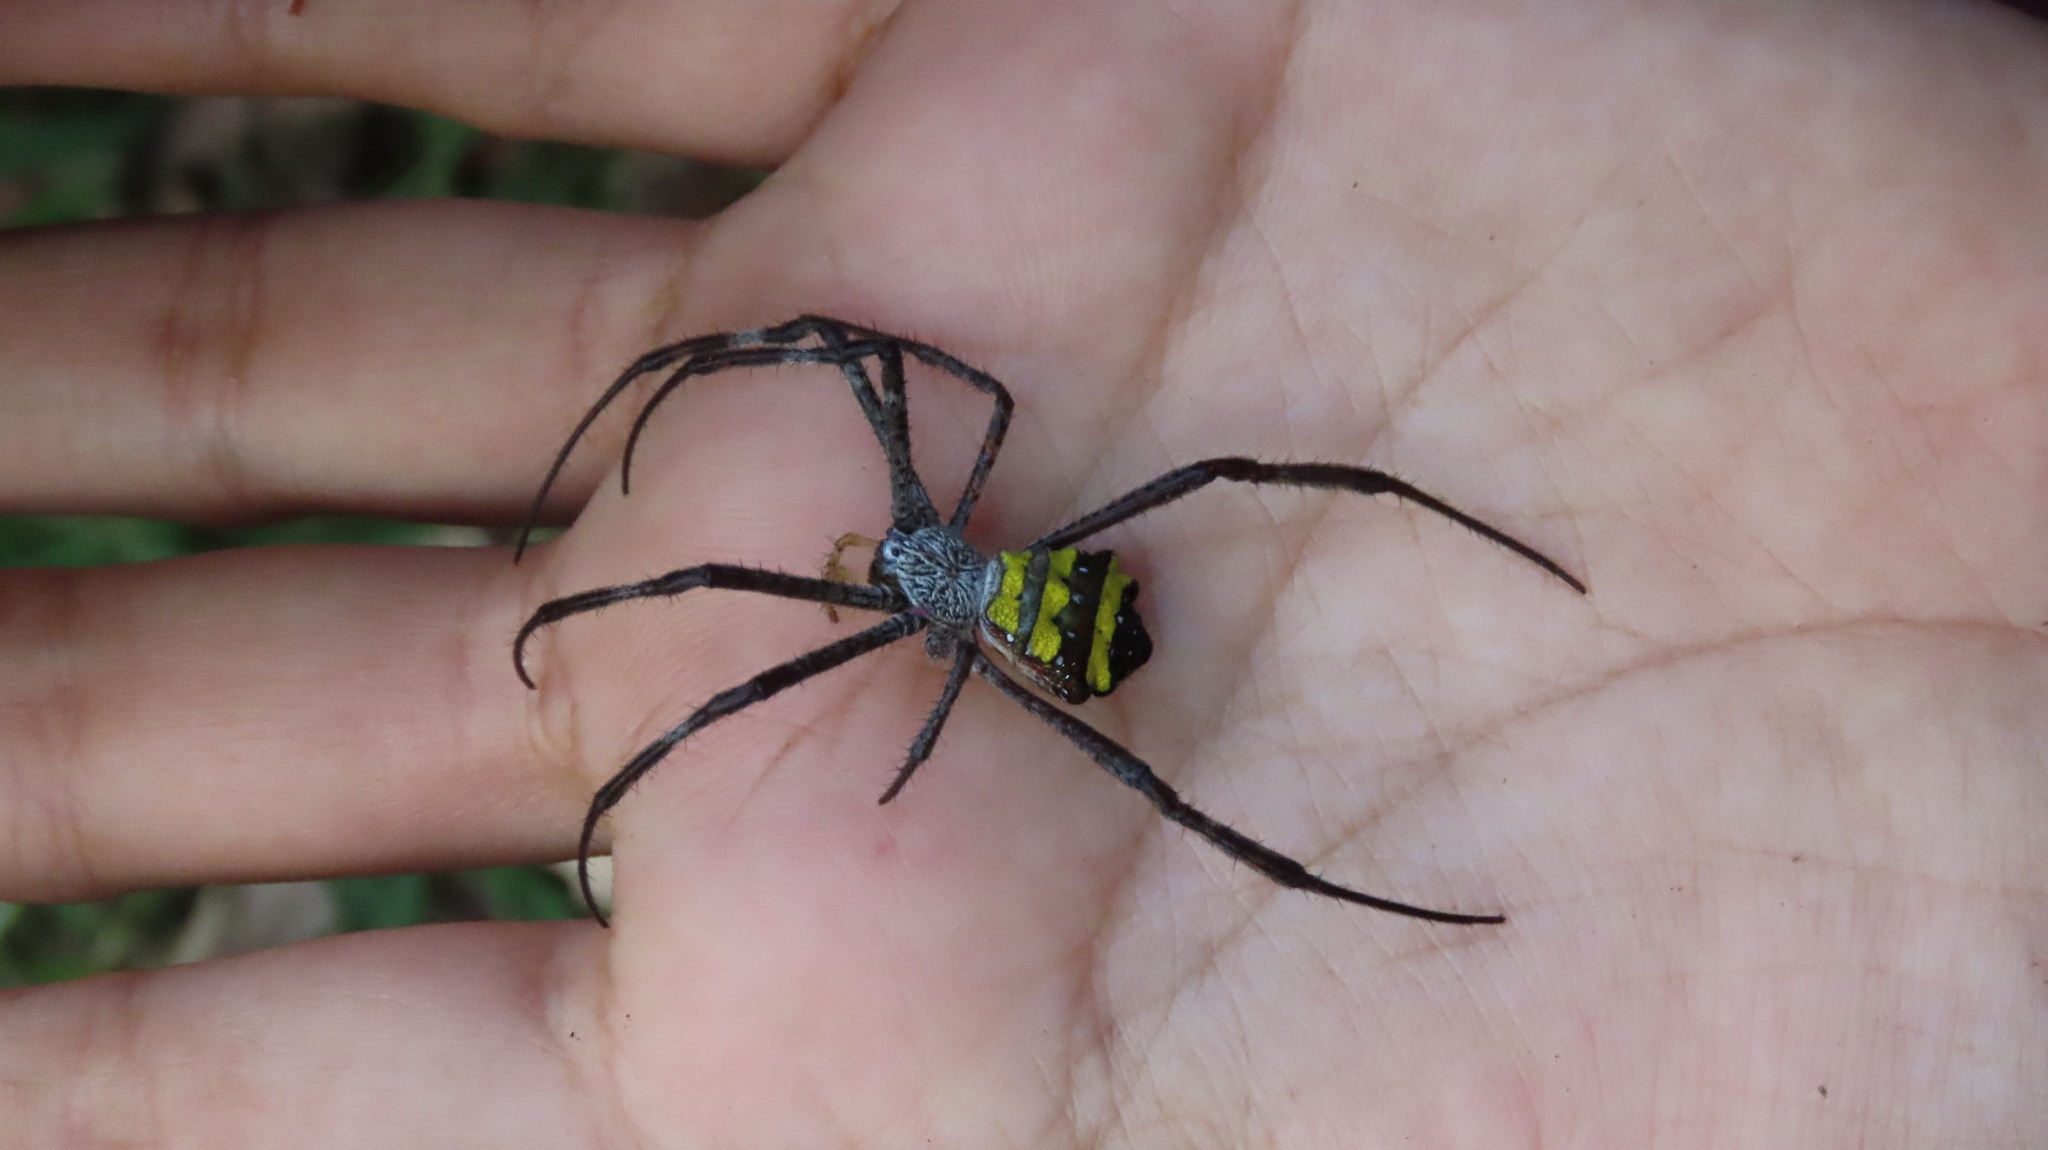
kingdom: Animalia
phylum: Arthropoda
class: Arachnida
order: Araneae
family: Araneidae
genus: Argiope
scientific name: Argiope taprobanica
